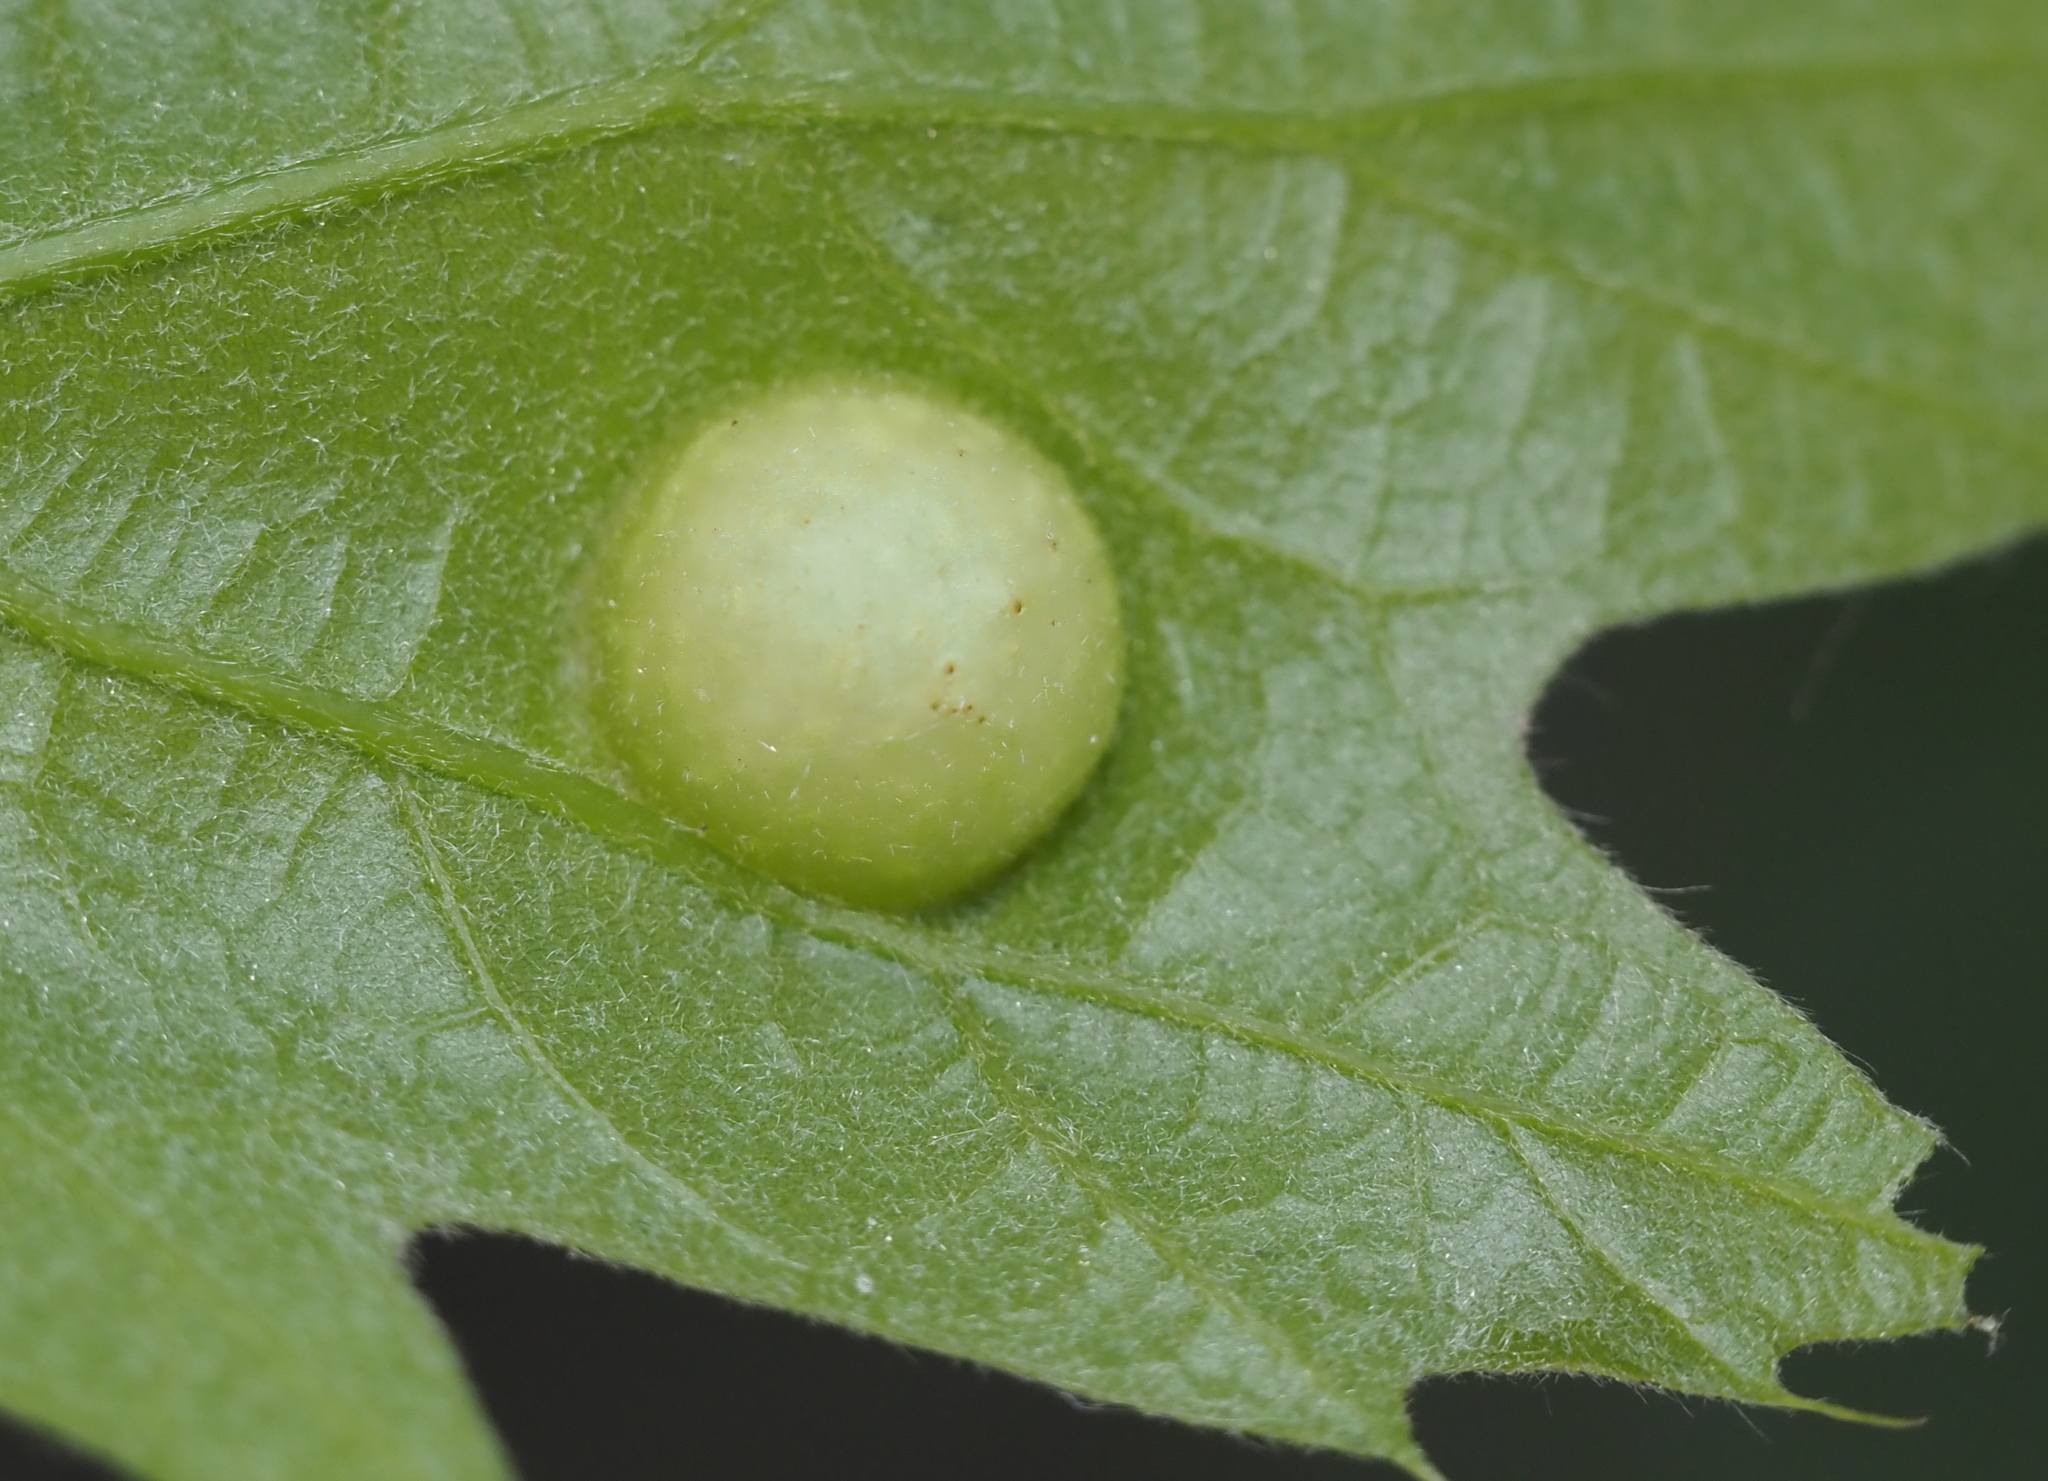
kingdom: Animalia
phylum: Arthropoda
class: Insecta
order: Hymenoptera
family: Cynipidae
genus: Amphibolips
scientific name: Amphibolips
